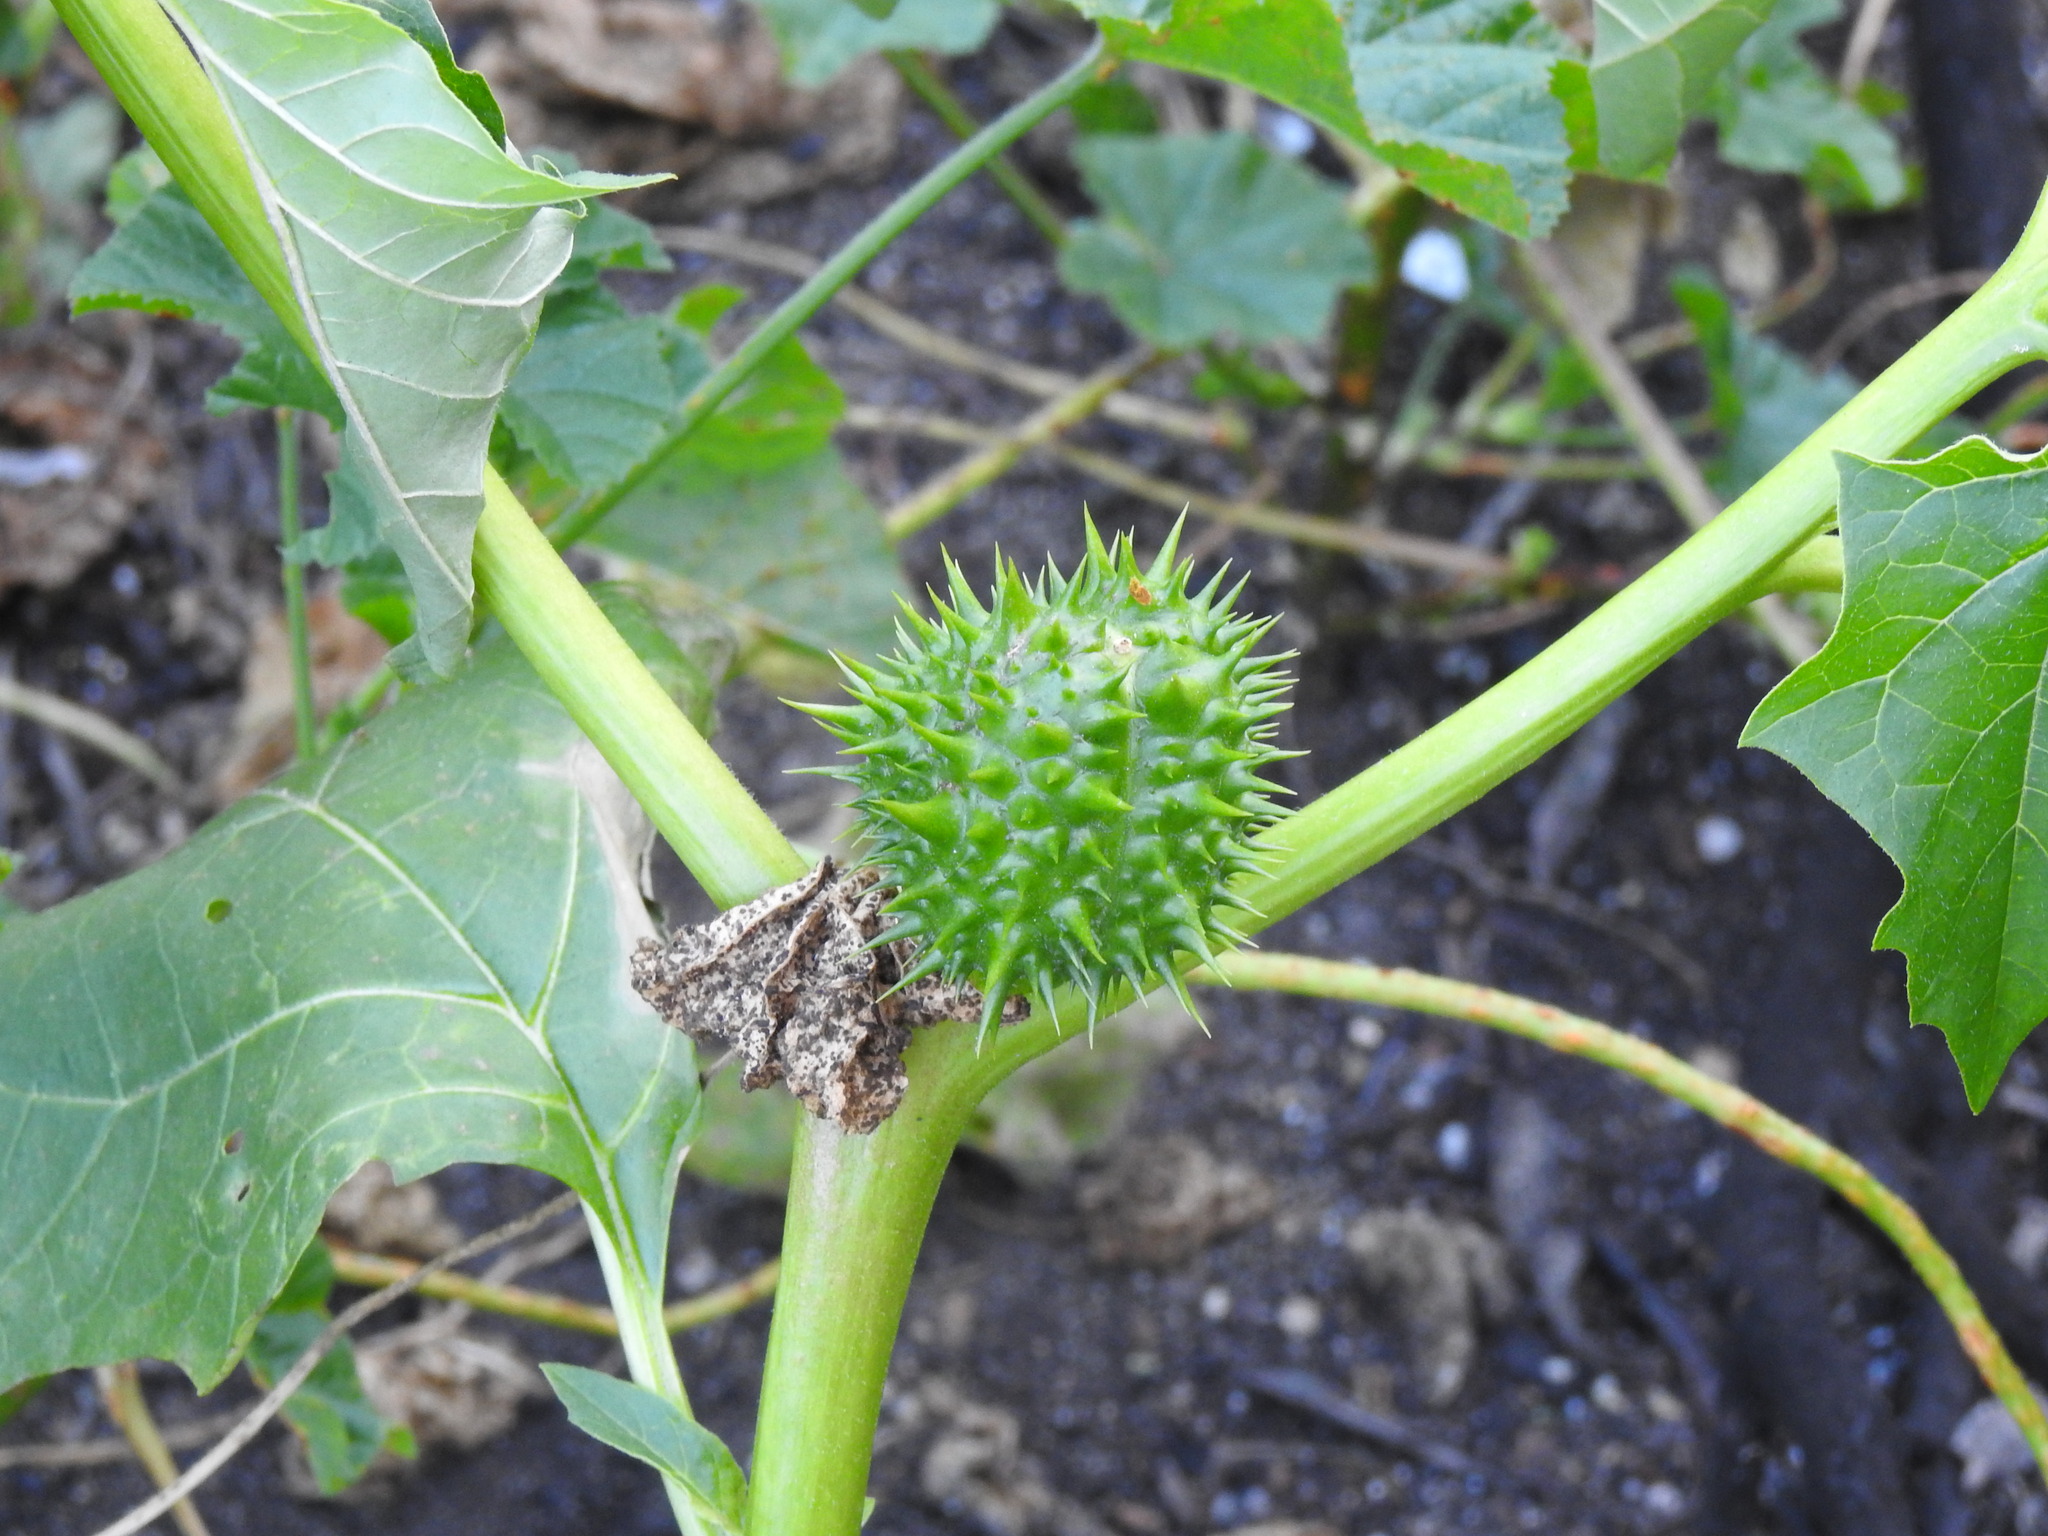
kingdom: Plantae
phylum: Tracheophyta
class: Magnoliopsida
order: Solanales
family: Solanaceae
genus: Datura
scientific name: Datura stramonium
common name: Thorn-apple
